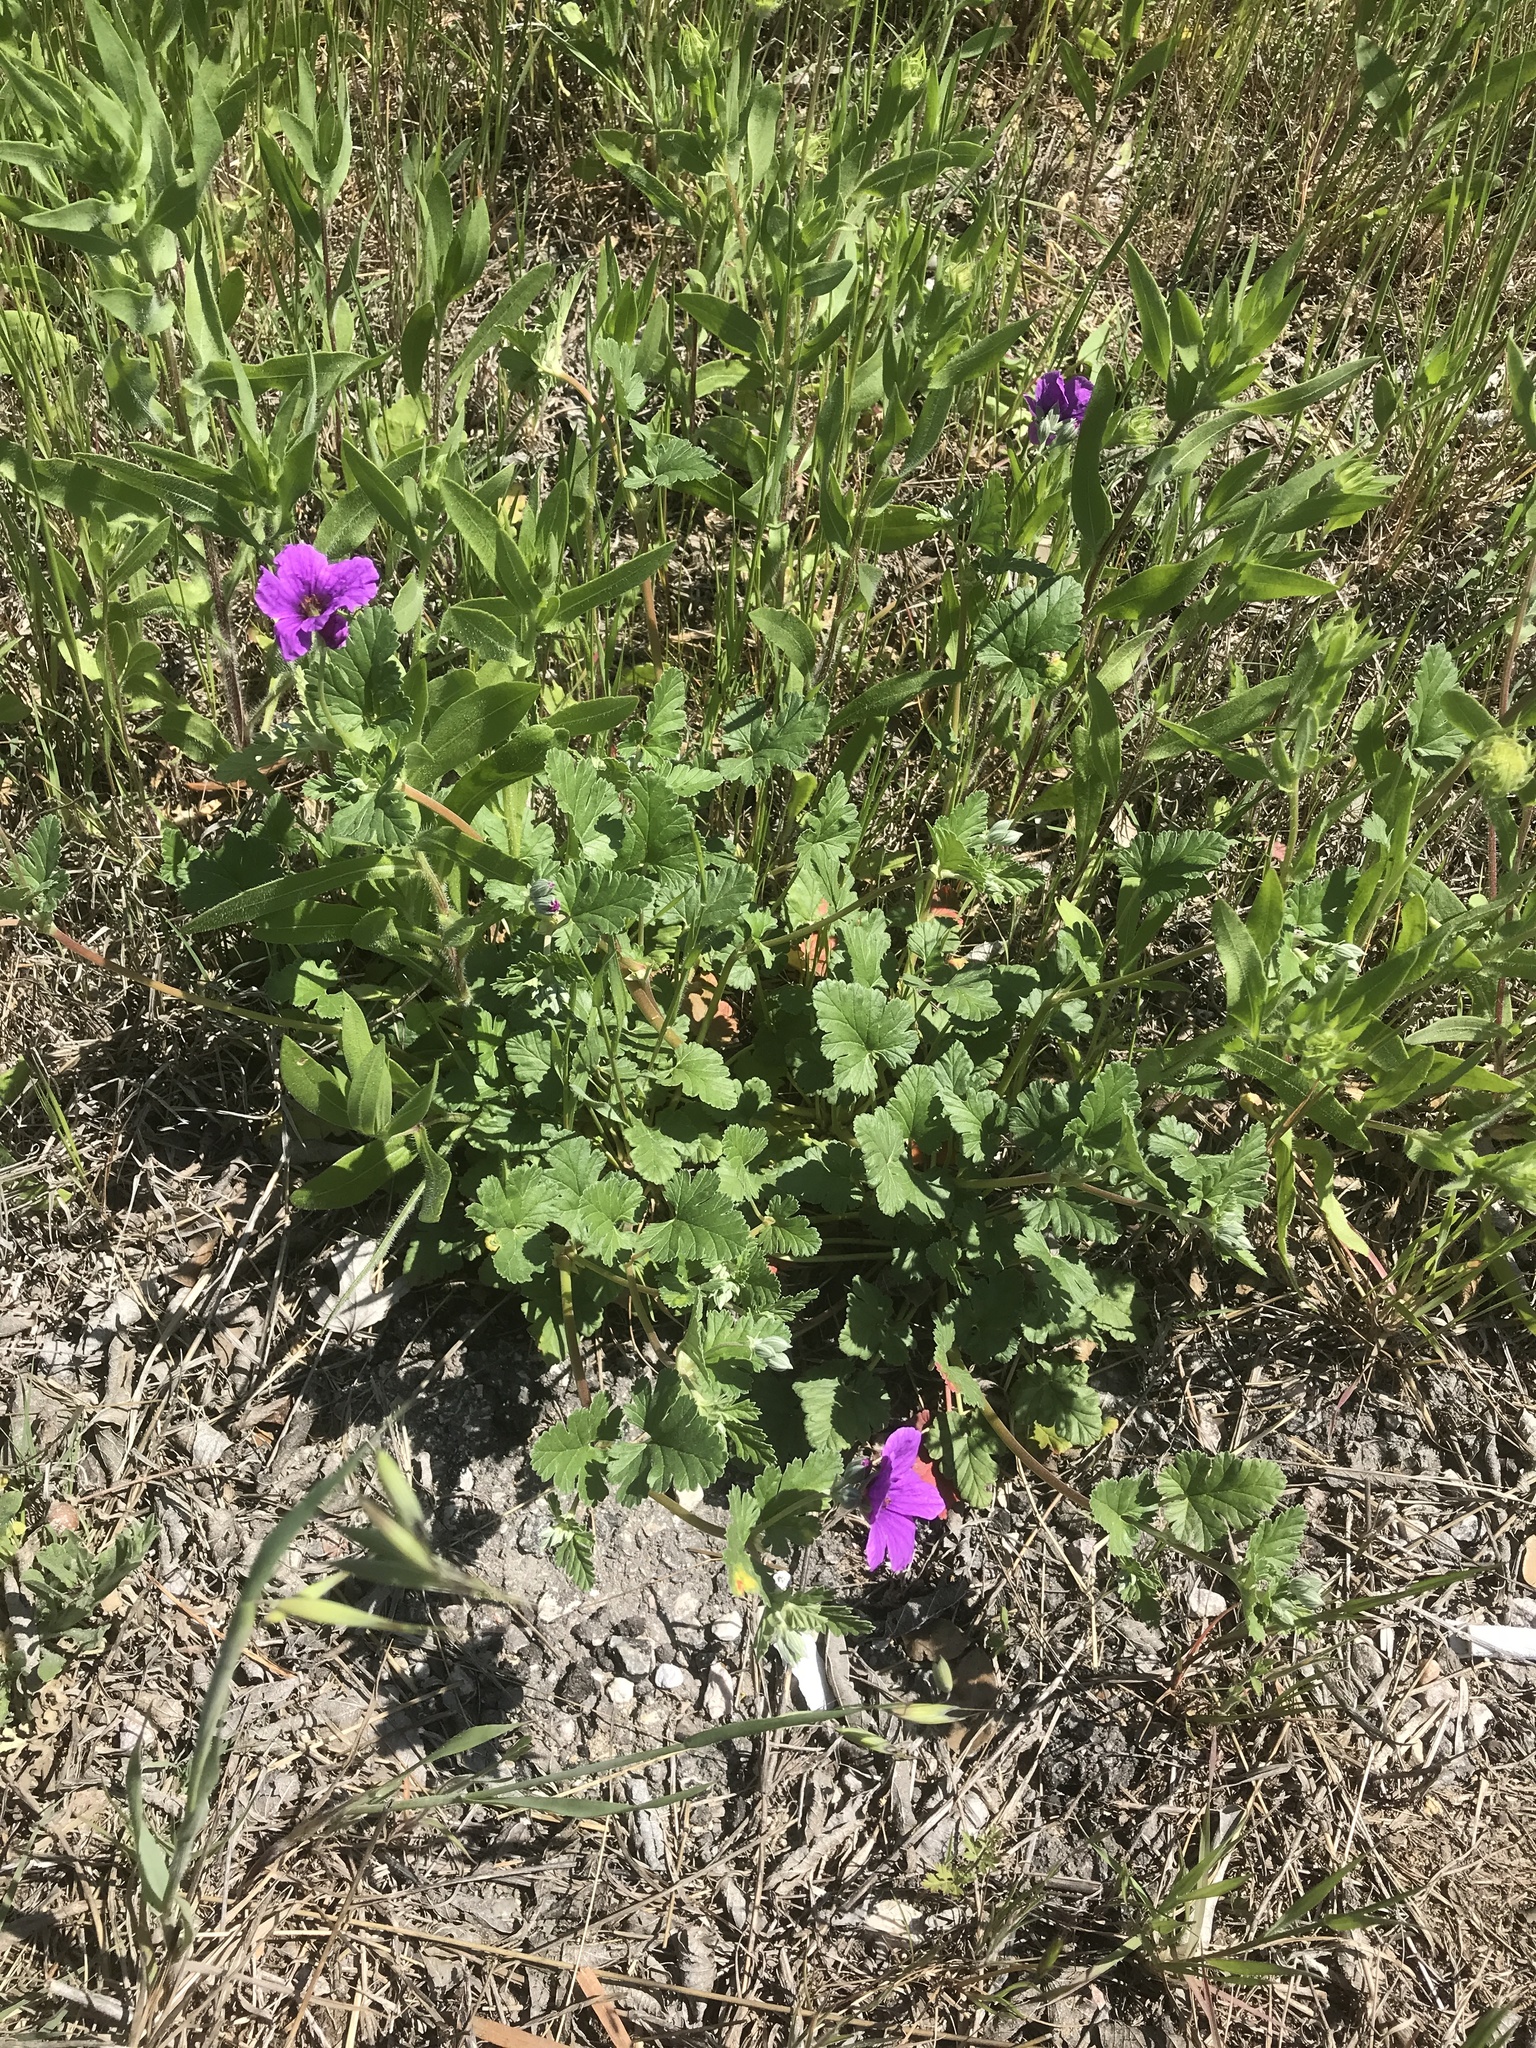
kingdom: Plantae
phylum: Tracheophyta
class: Magnoliopsida
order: Geraniales
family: Geraniaceae
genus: Erodium
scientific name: Erodium texanum
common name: Texas stork's-bill
